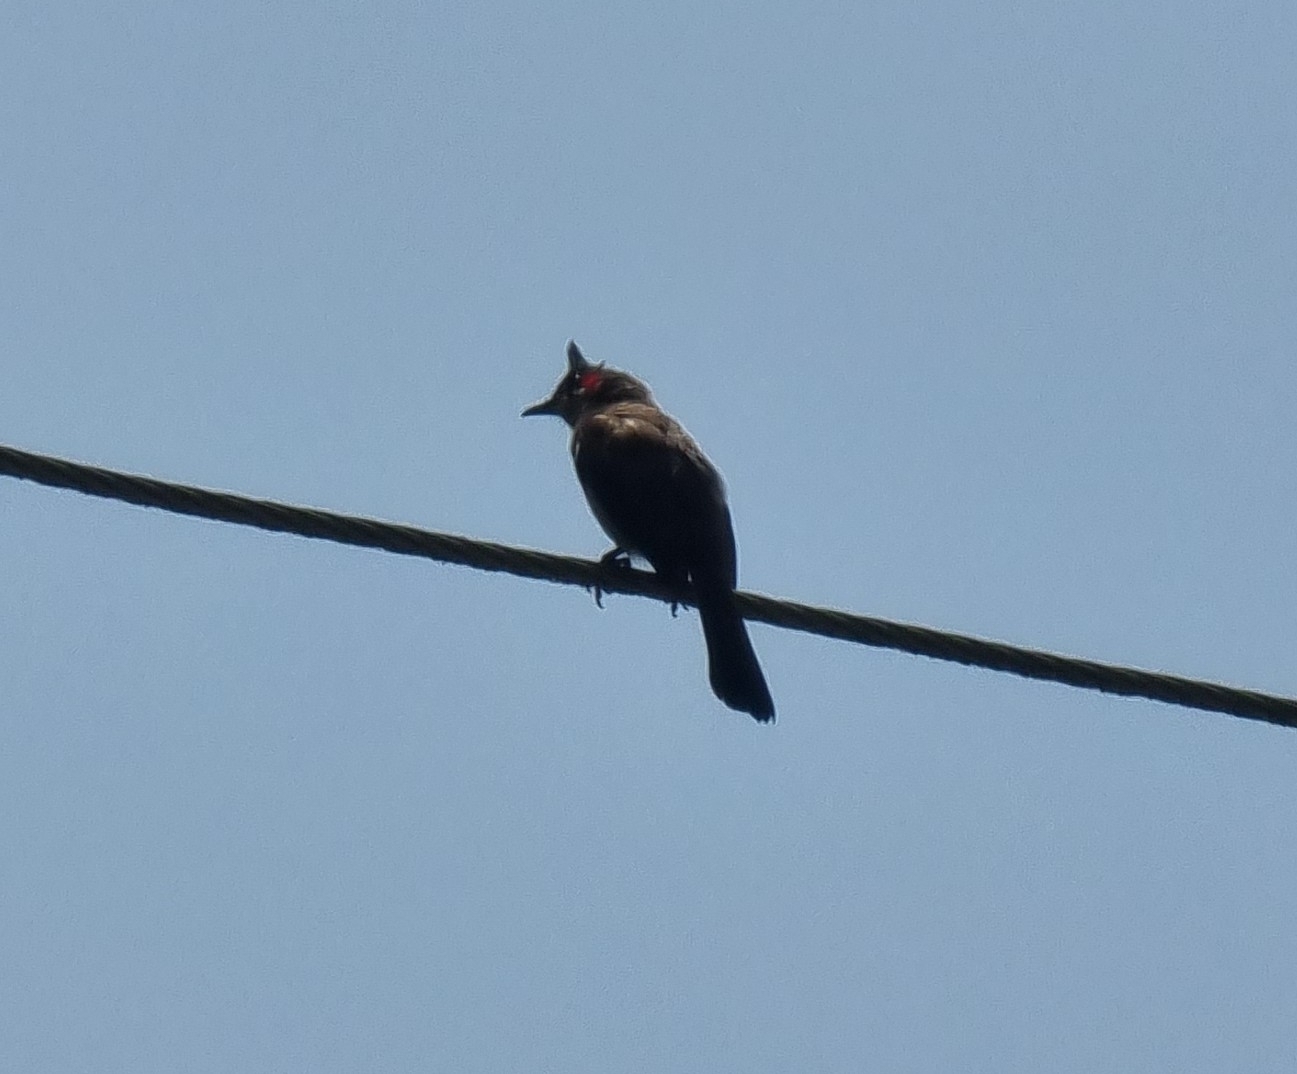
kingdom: Animalia
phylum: Chordata
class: Aves
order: Passeriformes
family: Pycnonotidae
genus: Pycnonotus
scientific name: Pycnonotus jocosus
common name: Red-whiskered bulbul
